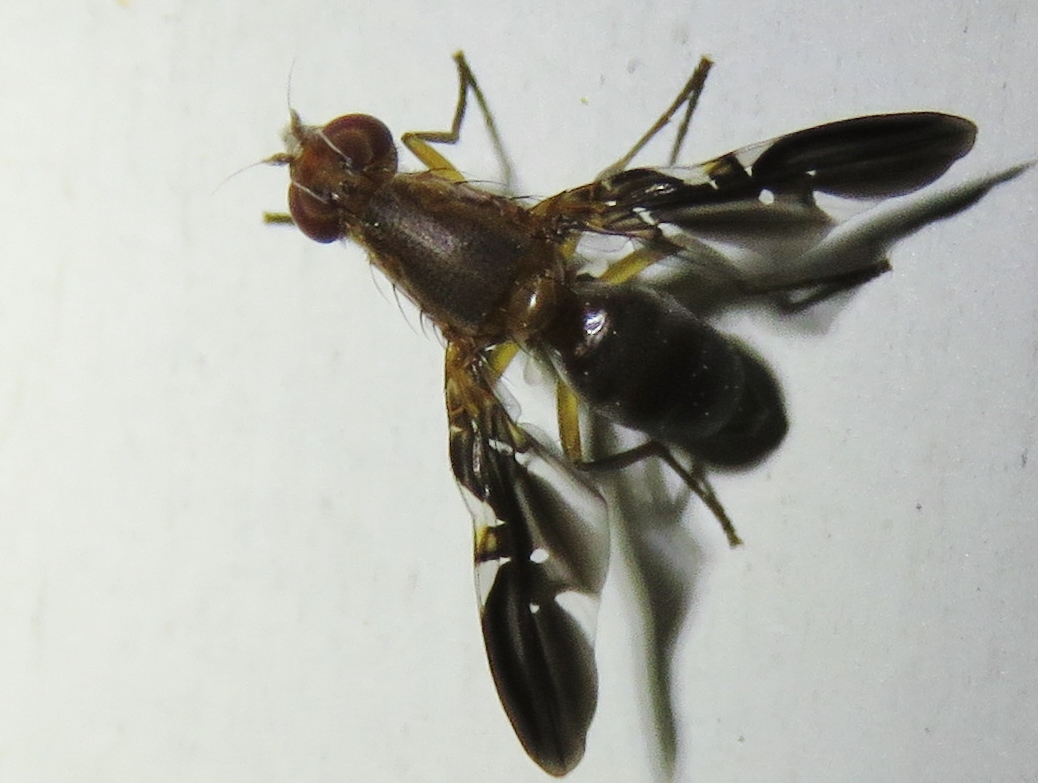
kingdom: Animalia
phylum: Arthropoda
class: Insecta
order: Diptera
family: Ulidiidae
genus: Delphinia
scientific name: Delphinia picta
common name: Common picture-winged fly
